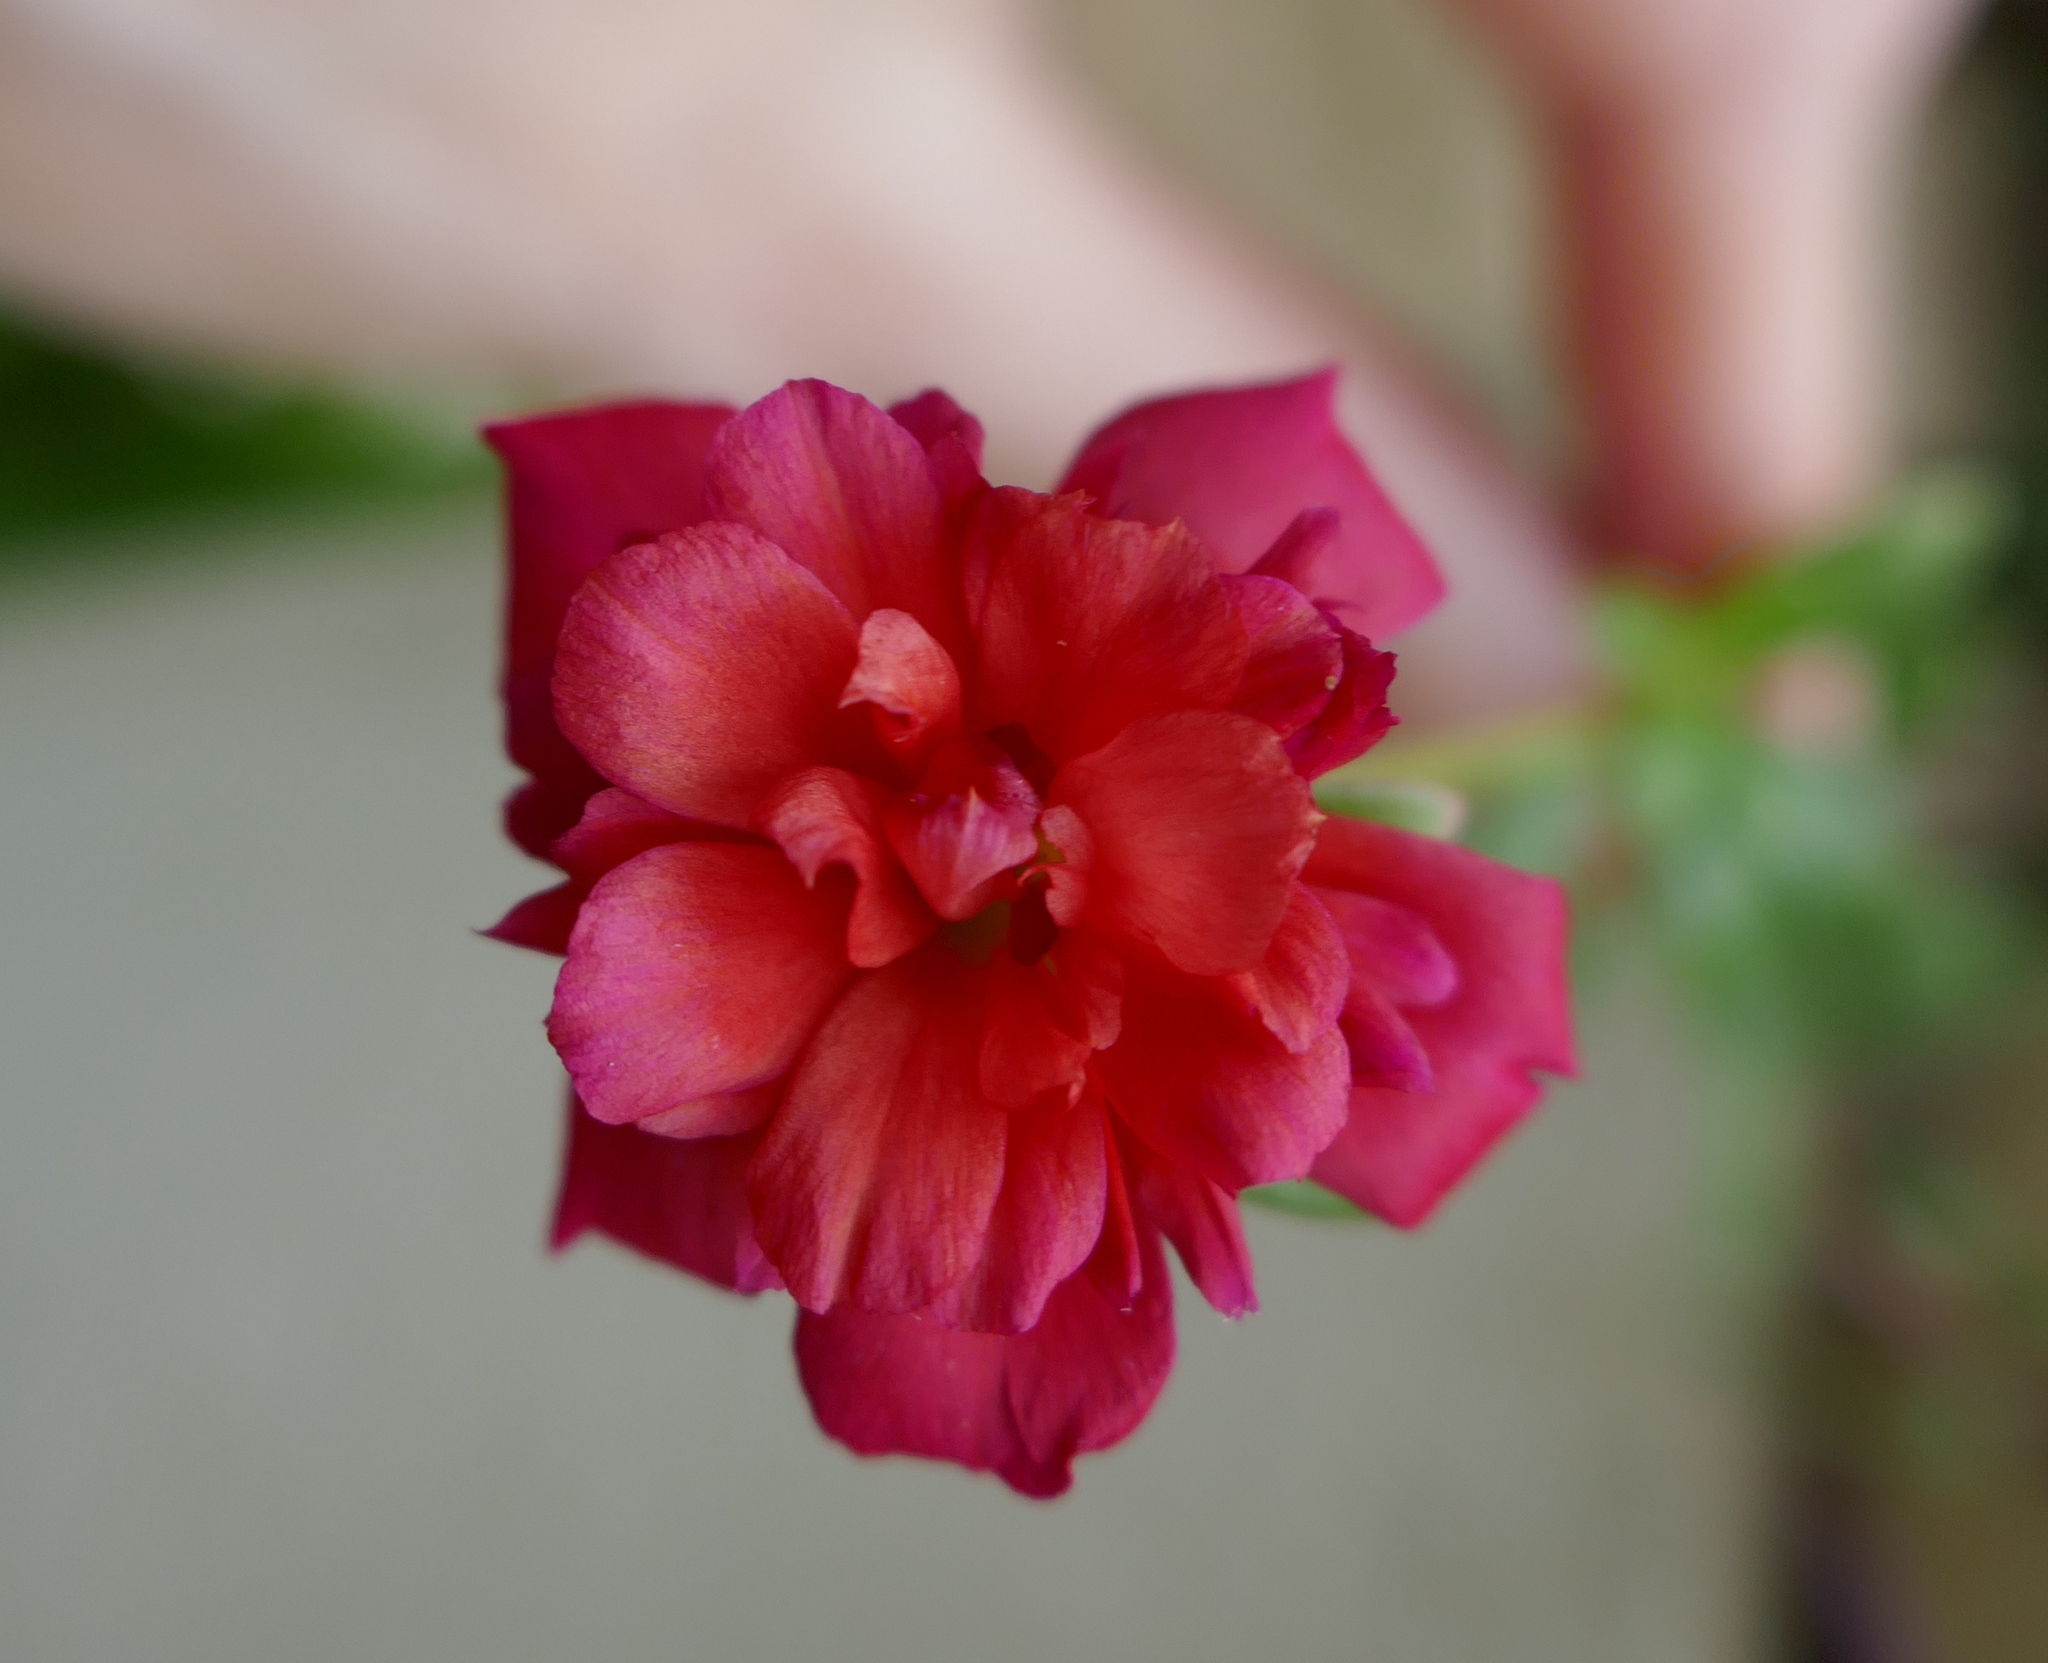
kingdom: Plantae
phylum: Tracheophyta
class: Magnoliopsida
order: Caryophyllales
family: Portulacaceae
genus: Portulaca
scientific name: Portulaca umbraticola
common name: Wingpod purslane
